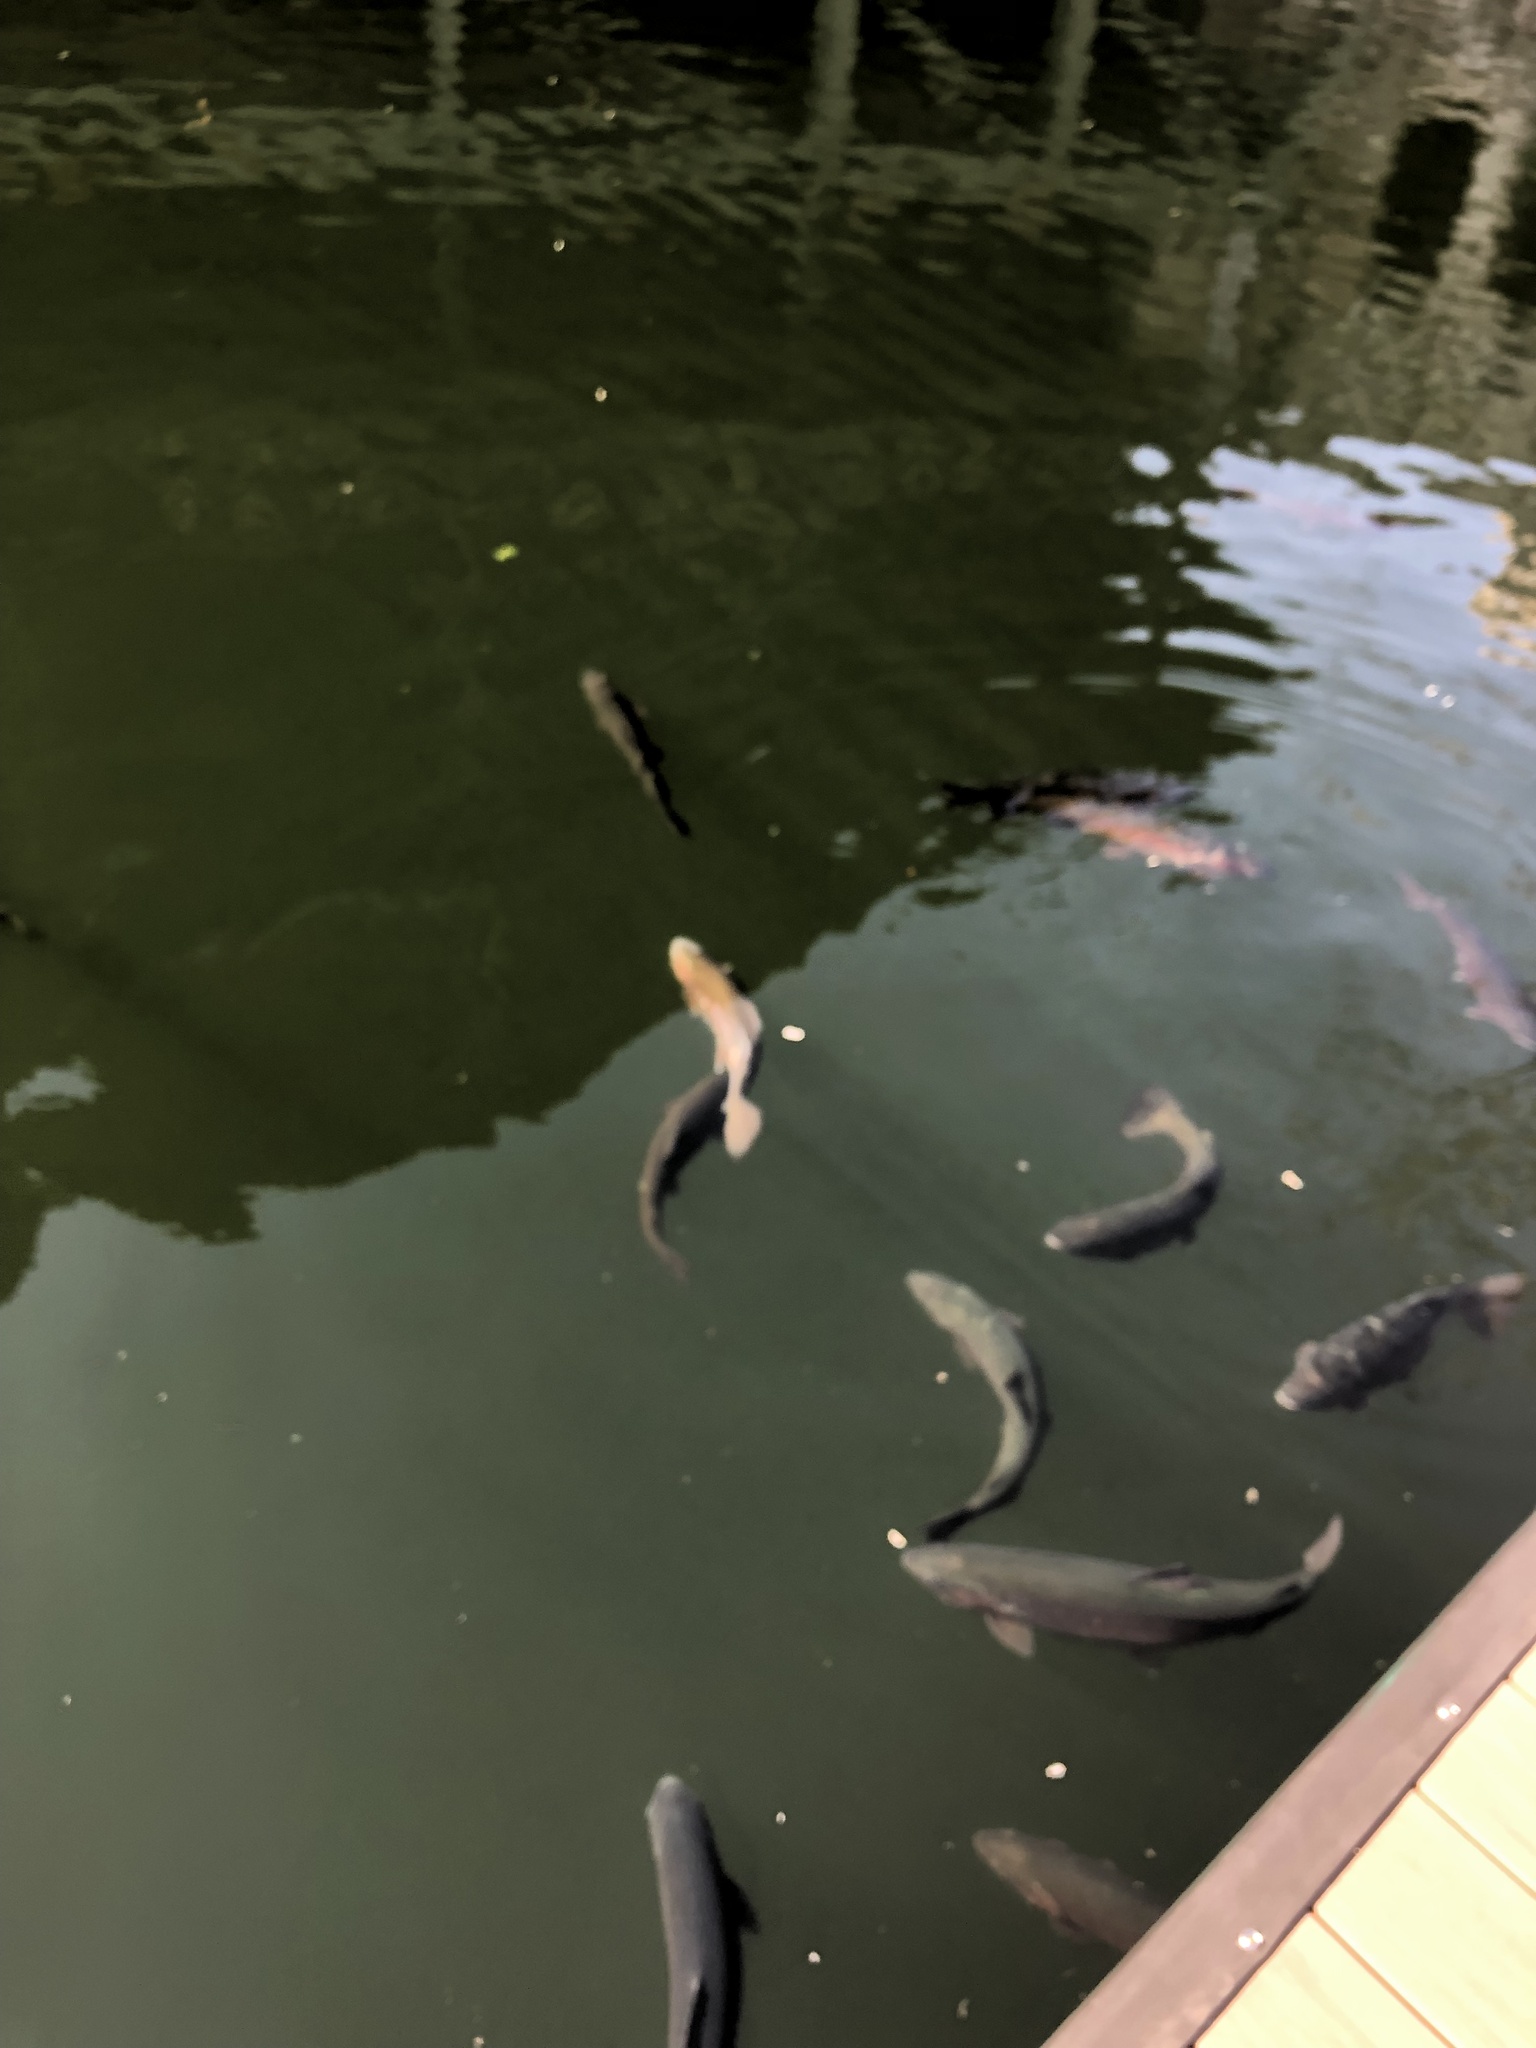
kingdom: Animalia
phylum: Chordata
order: Salmoniformes
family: Salmonidae
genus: Oncorhynchus
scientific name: Oncorhynchus mykiss
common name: Rainbow trout
